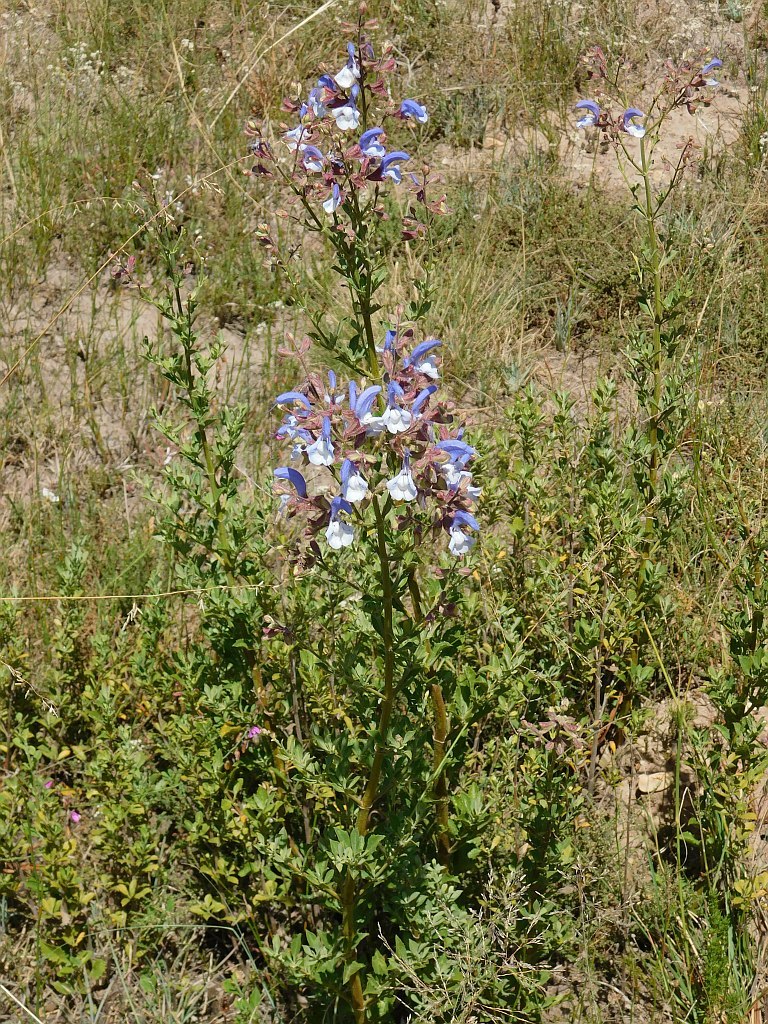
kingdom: Plantae
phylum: Tracheophyta
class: Magnoliopsida
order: Lamiales
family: Lamiaceae
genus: Salvia
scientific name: Salvia chamelaeagnea
